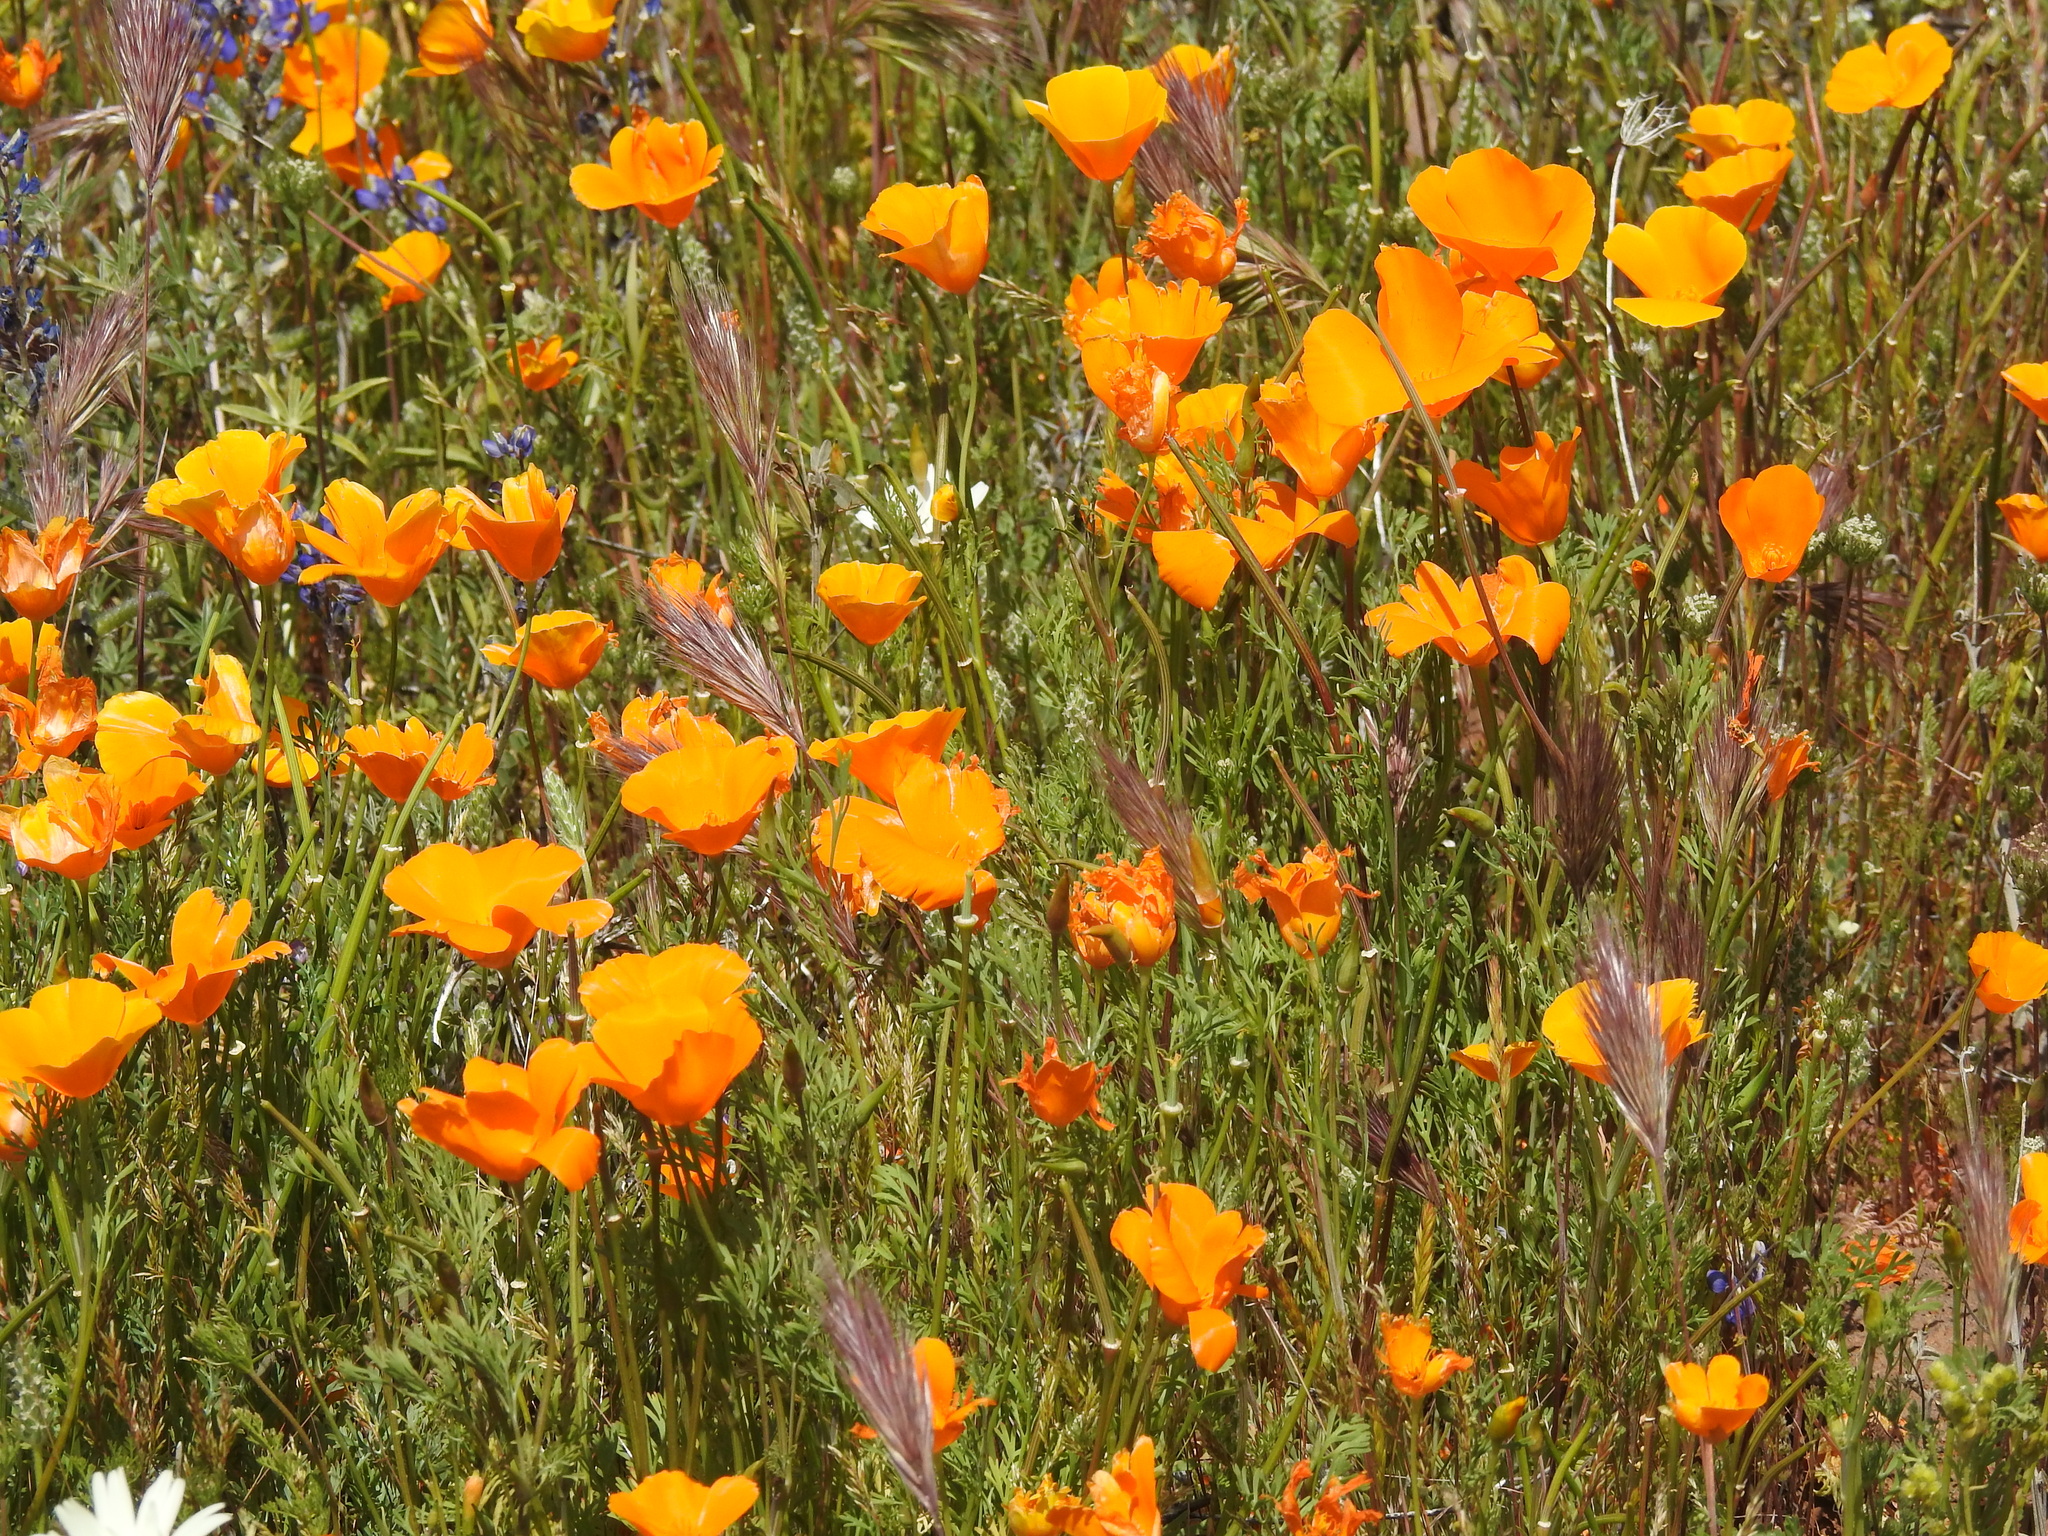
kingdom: Plantae
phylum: Tracheophyta
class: Magnoliopsida
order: Ranunculales
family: Papaveraceae
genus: Eschscholzia
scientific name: Eschscholzia californica
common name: California poppy
